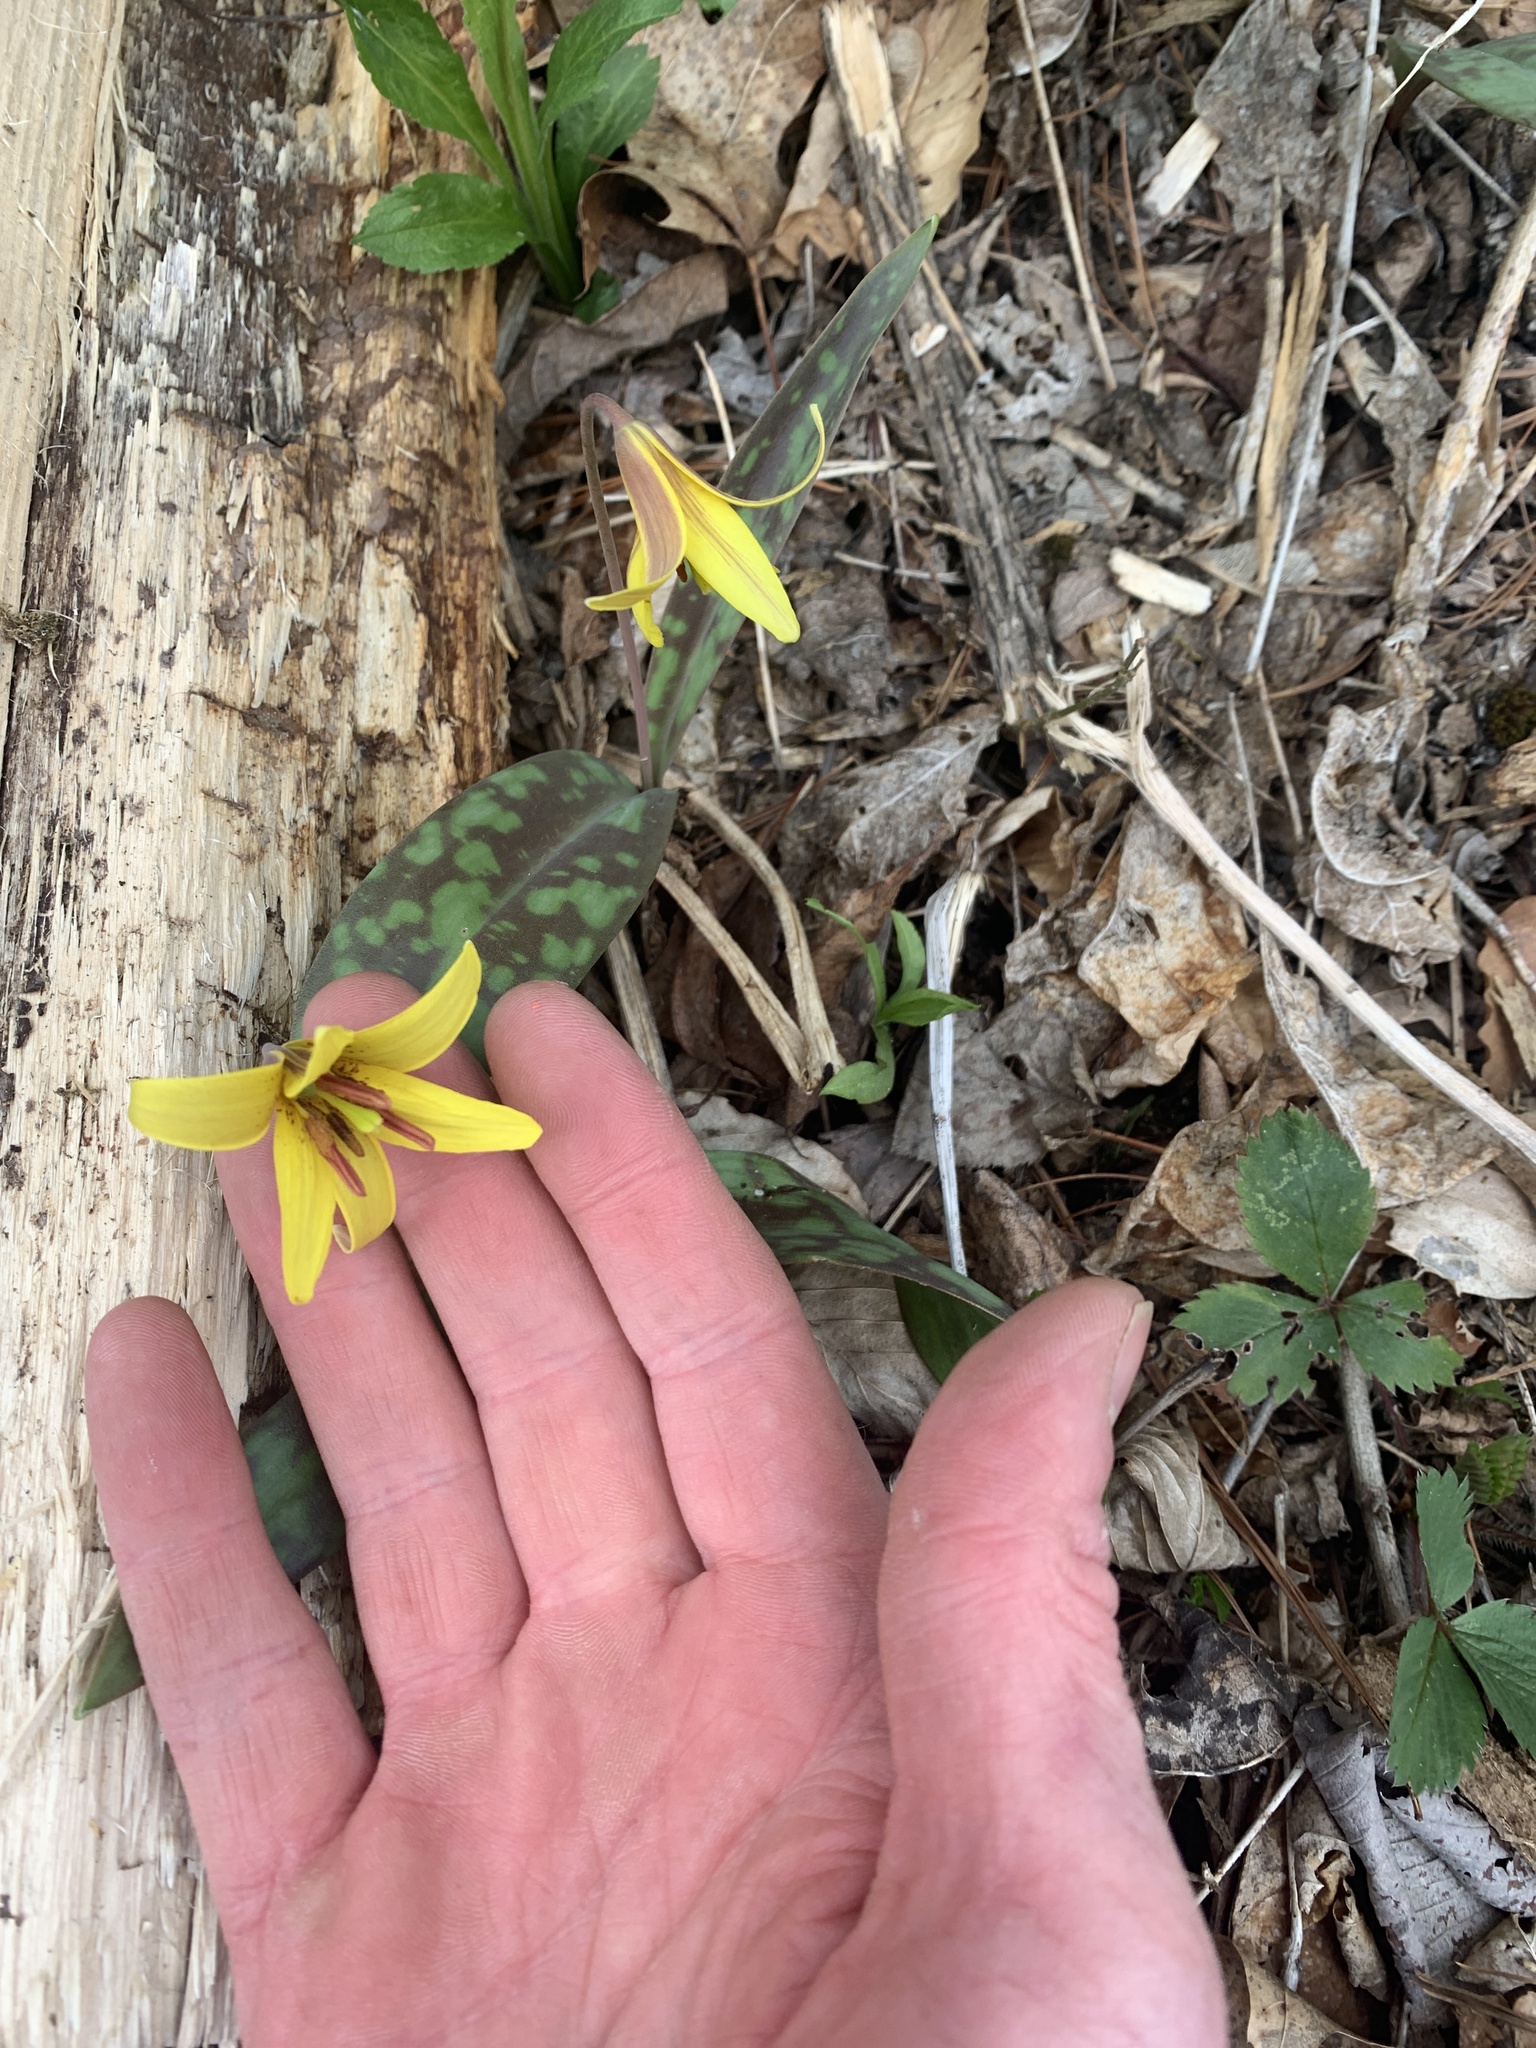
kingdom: Plantae
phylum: Tracheophyta
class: Liliopsida
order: Liliales
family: Liliaceae
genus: Erythronium
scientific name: Erythronium americanum
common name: Yellow adder's-tongue
